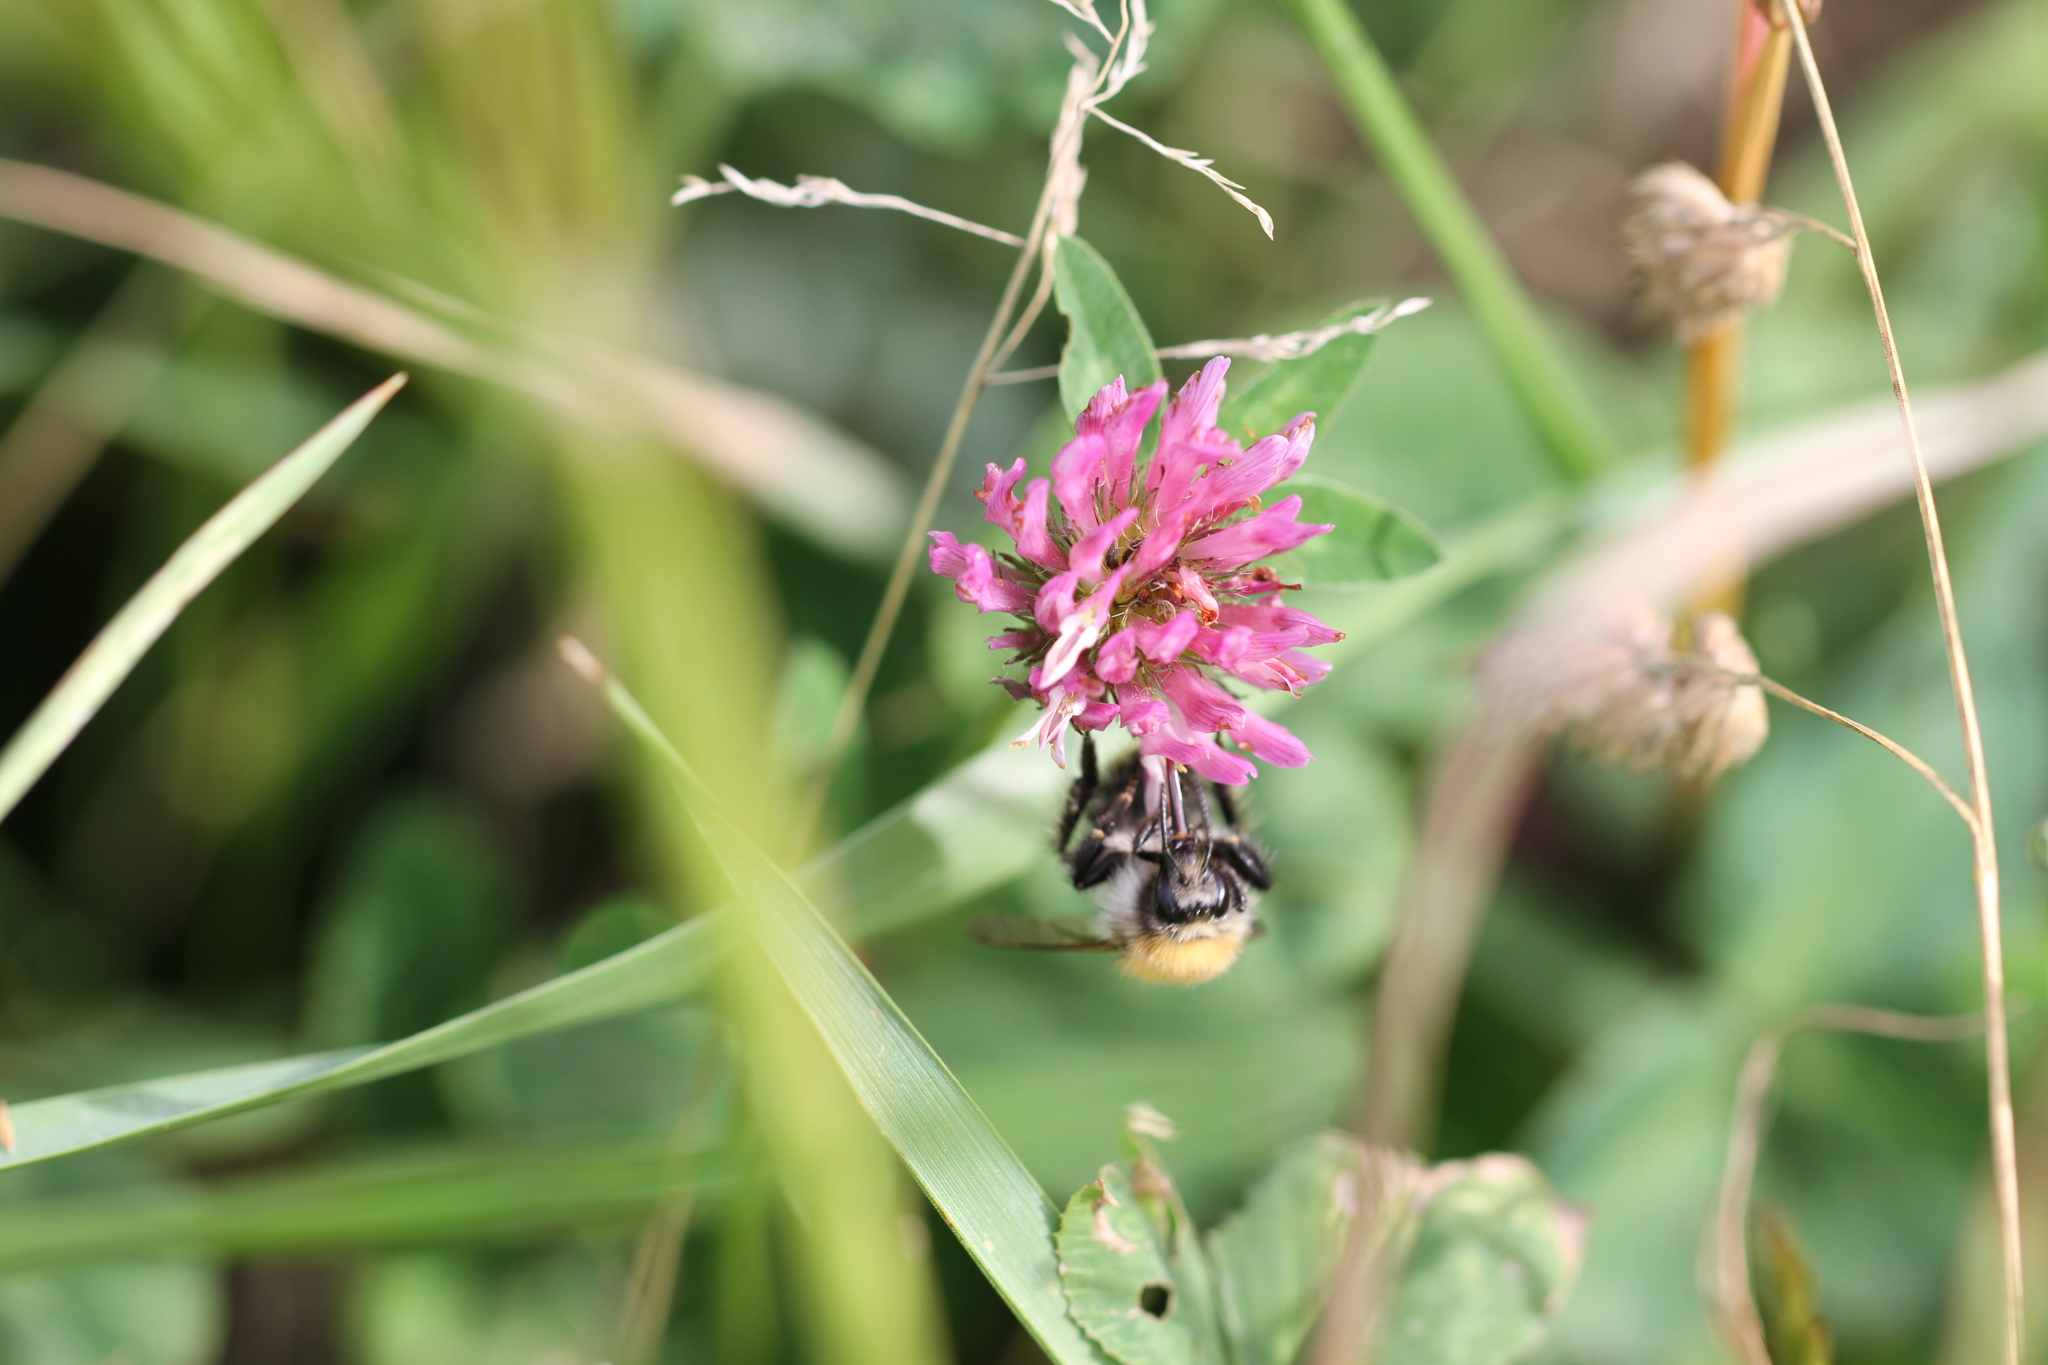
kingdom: Animalia
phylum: Arthropoda
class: Insecta
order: Hymenoptera
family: Apidae
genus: Bombus
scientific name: Bombus pascuorum
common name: Common carder bee
